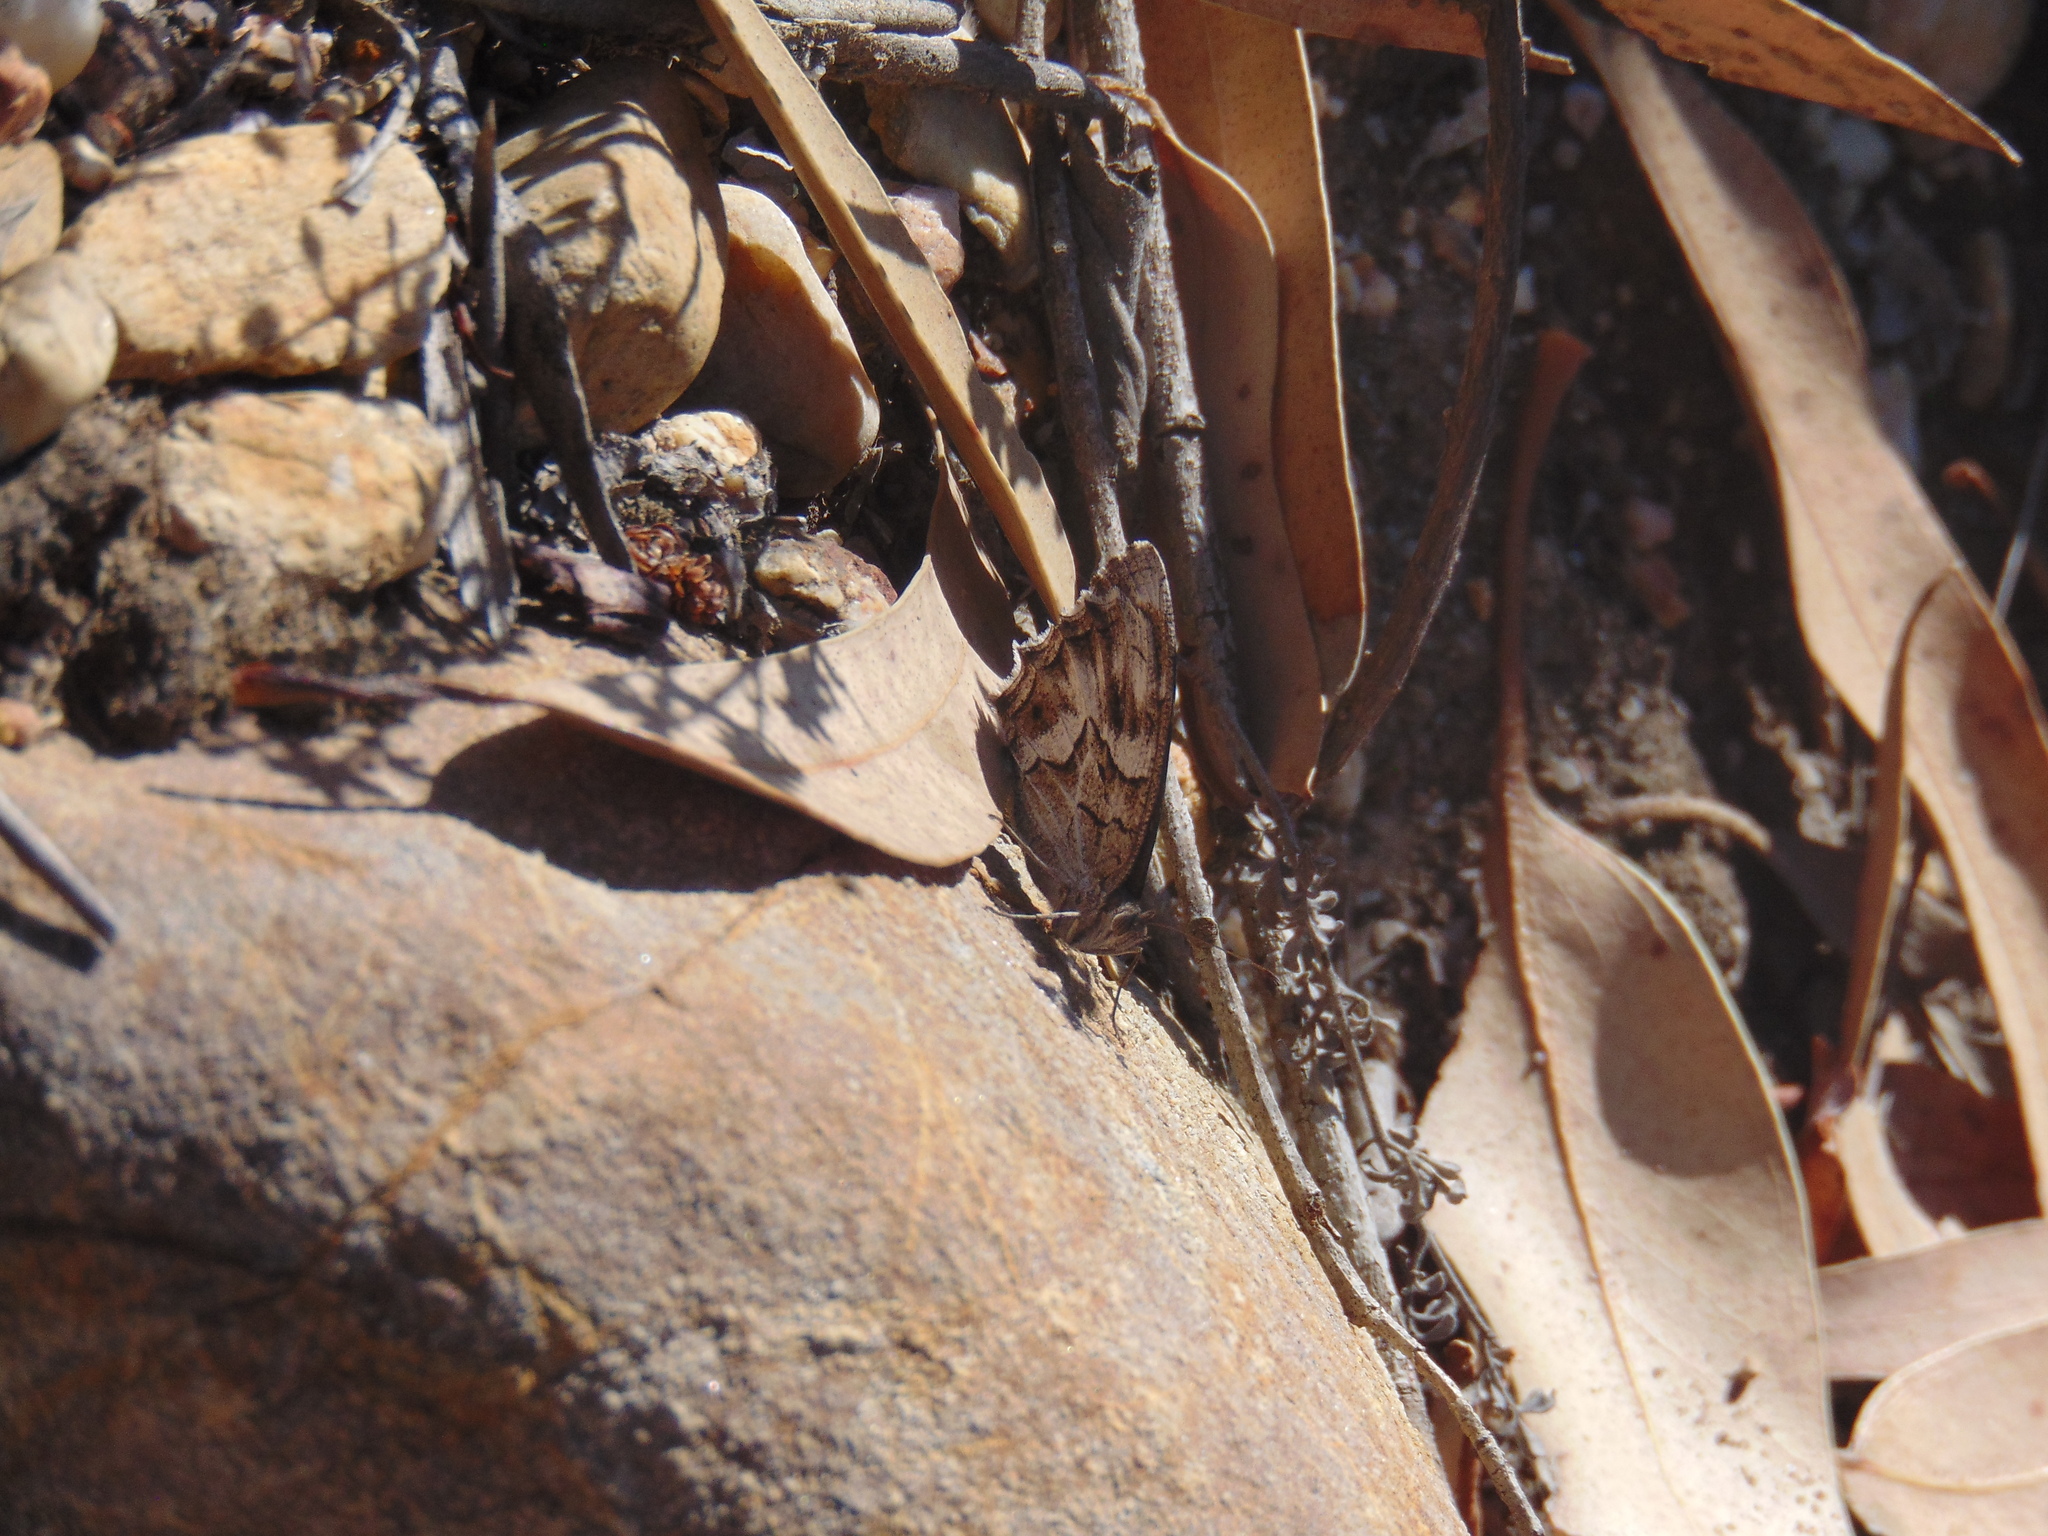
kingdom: Animalia
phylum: Arthropoda
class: Insecta
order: Lepidoptera
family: Nymphalidae
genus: Hipparchia
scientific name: Hipparchia fidia
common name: Striped grayling
